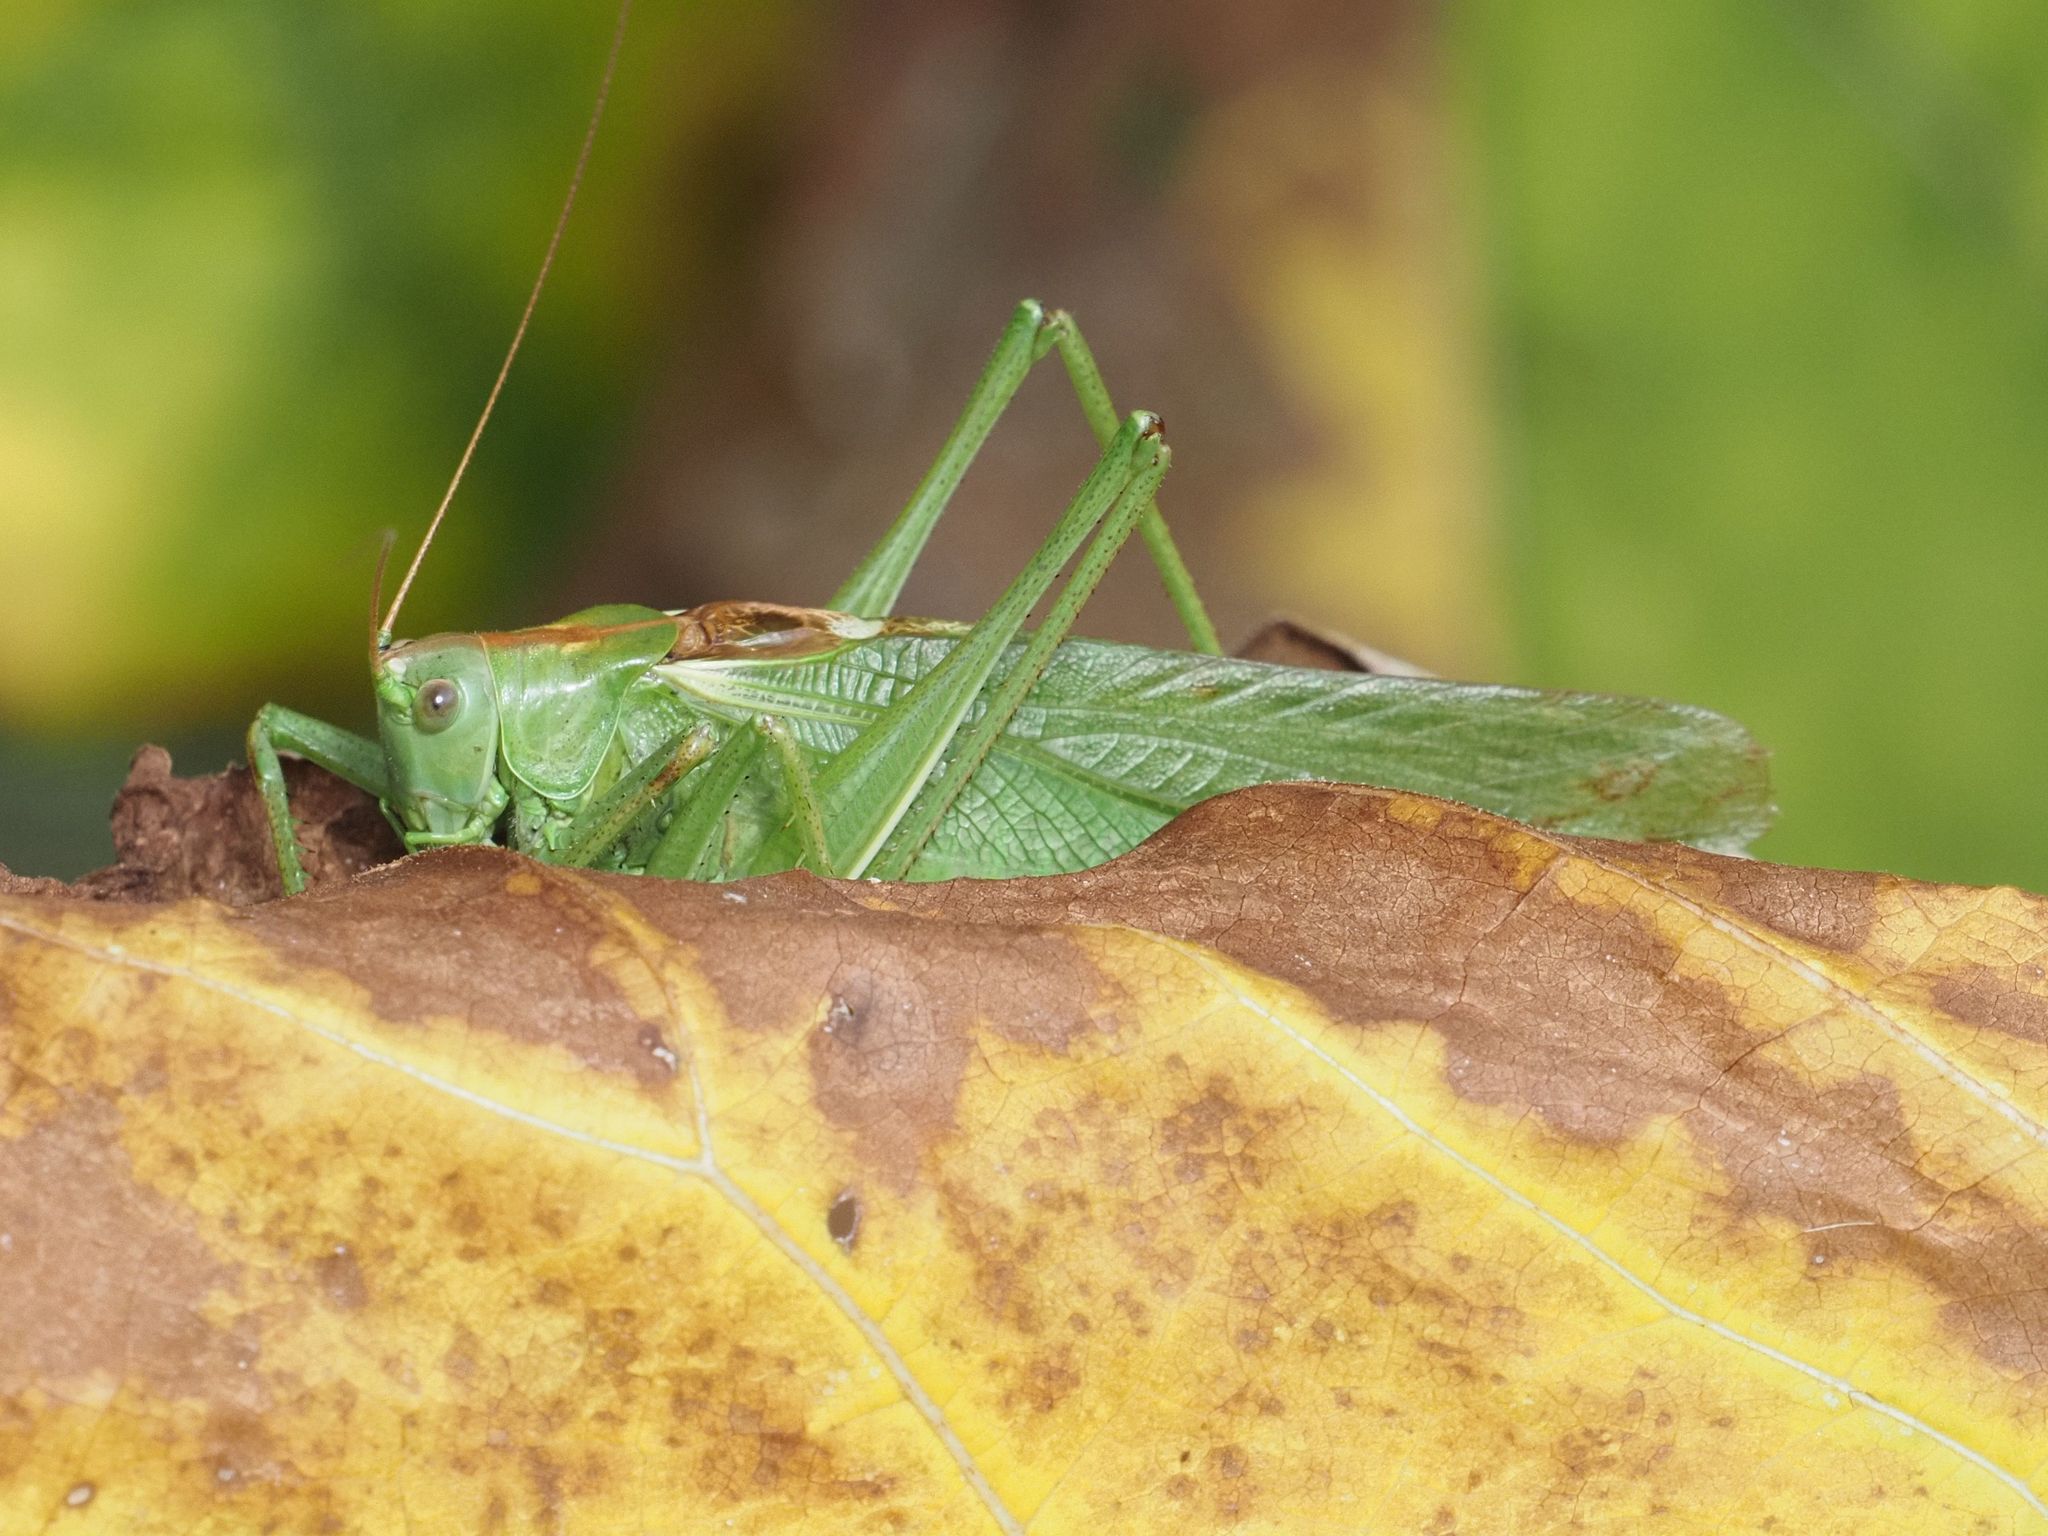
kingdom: Animalia
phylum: Arthropoda
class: Insecta
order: Orthoptera
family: Tettigoniidae
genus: Tettigonia
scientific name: Tettigonia viridissima
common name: Great green bush-cricket
